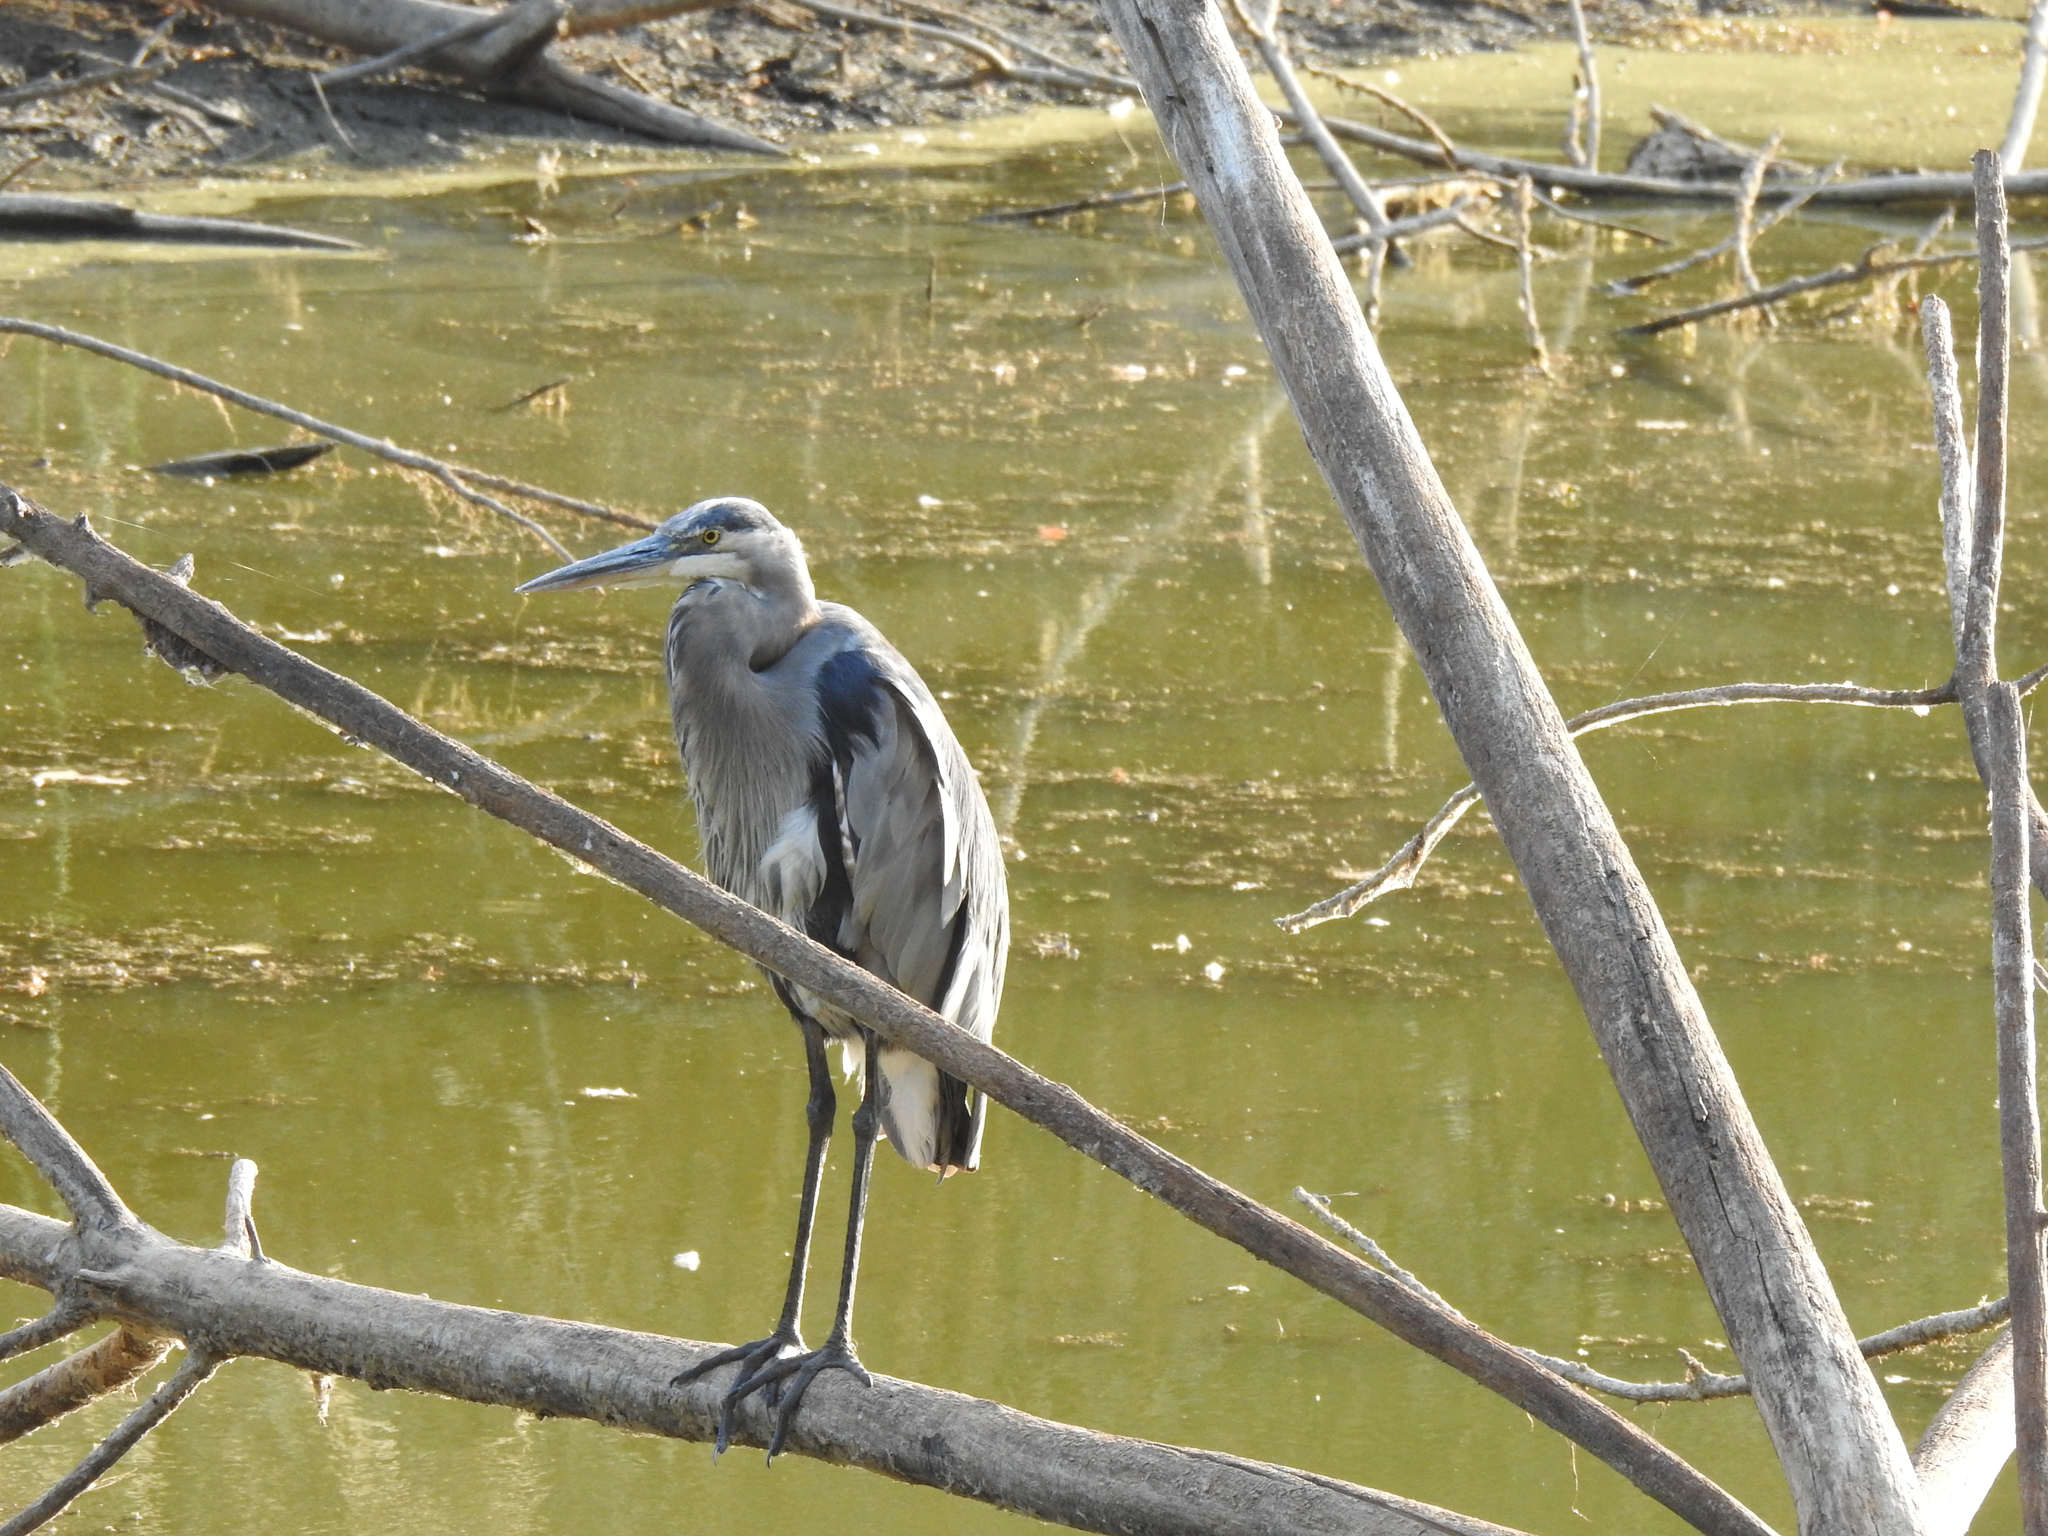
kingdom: Animalia
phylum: Chordata
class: Aves
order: Pelecaniformes
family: Ardeidae
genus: Ardea
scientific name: Ardea herodias
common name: Great blue heron
